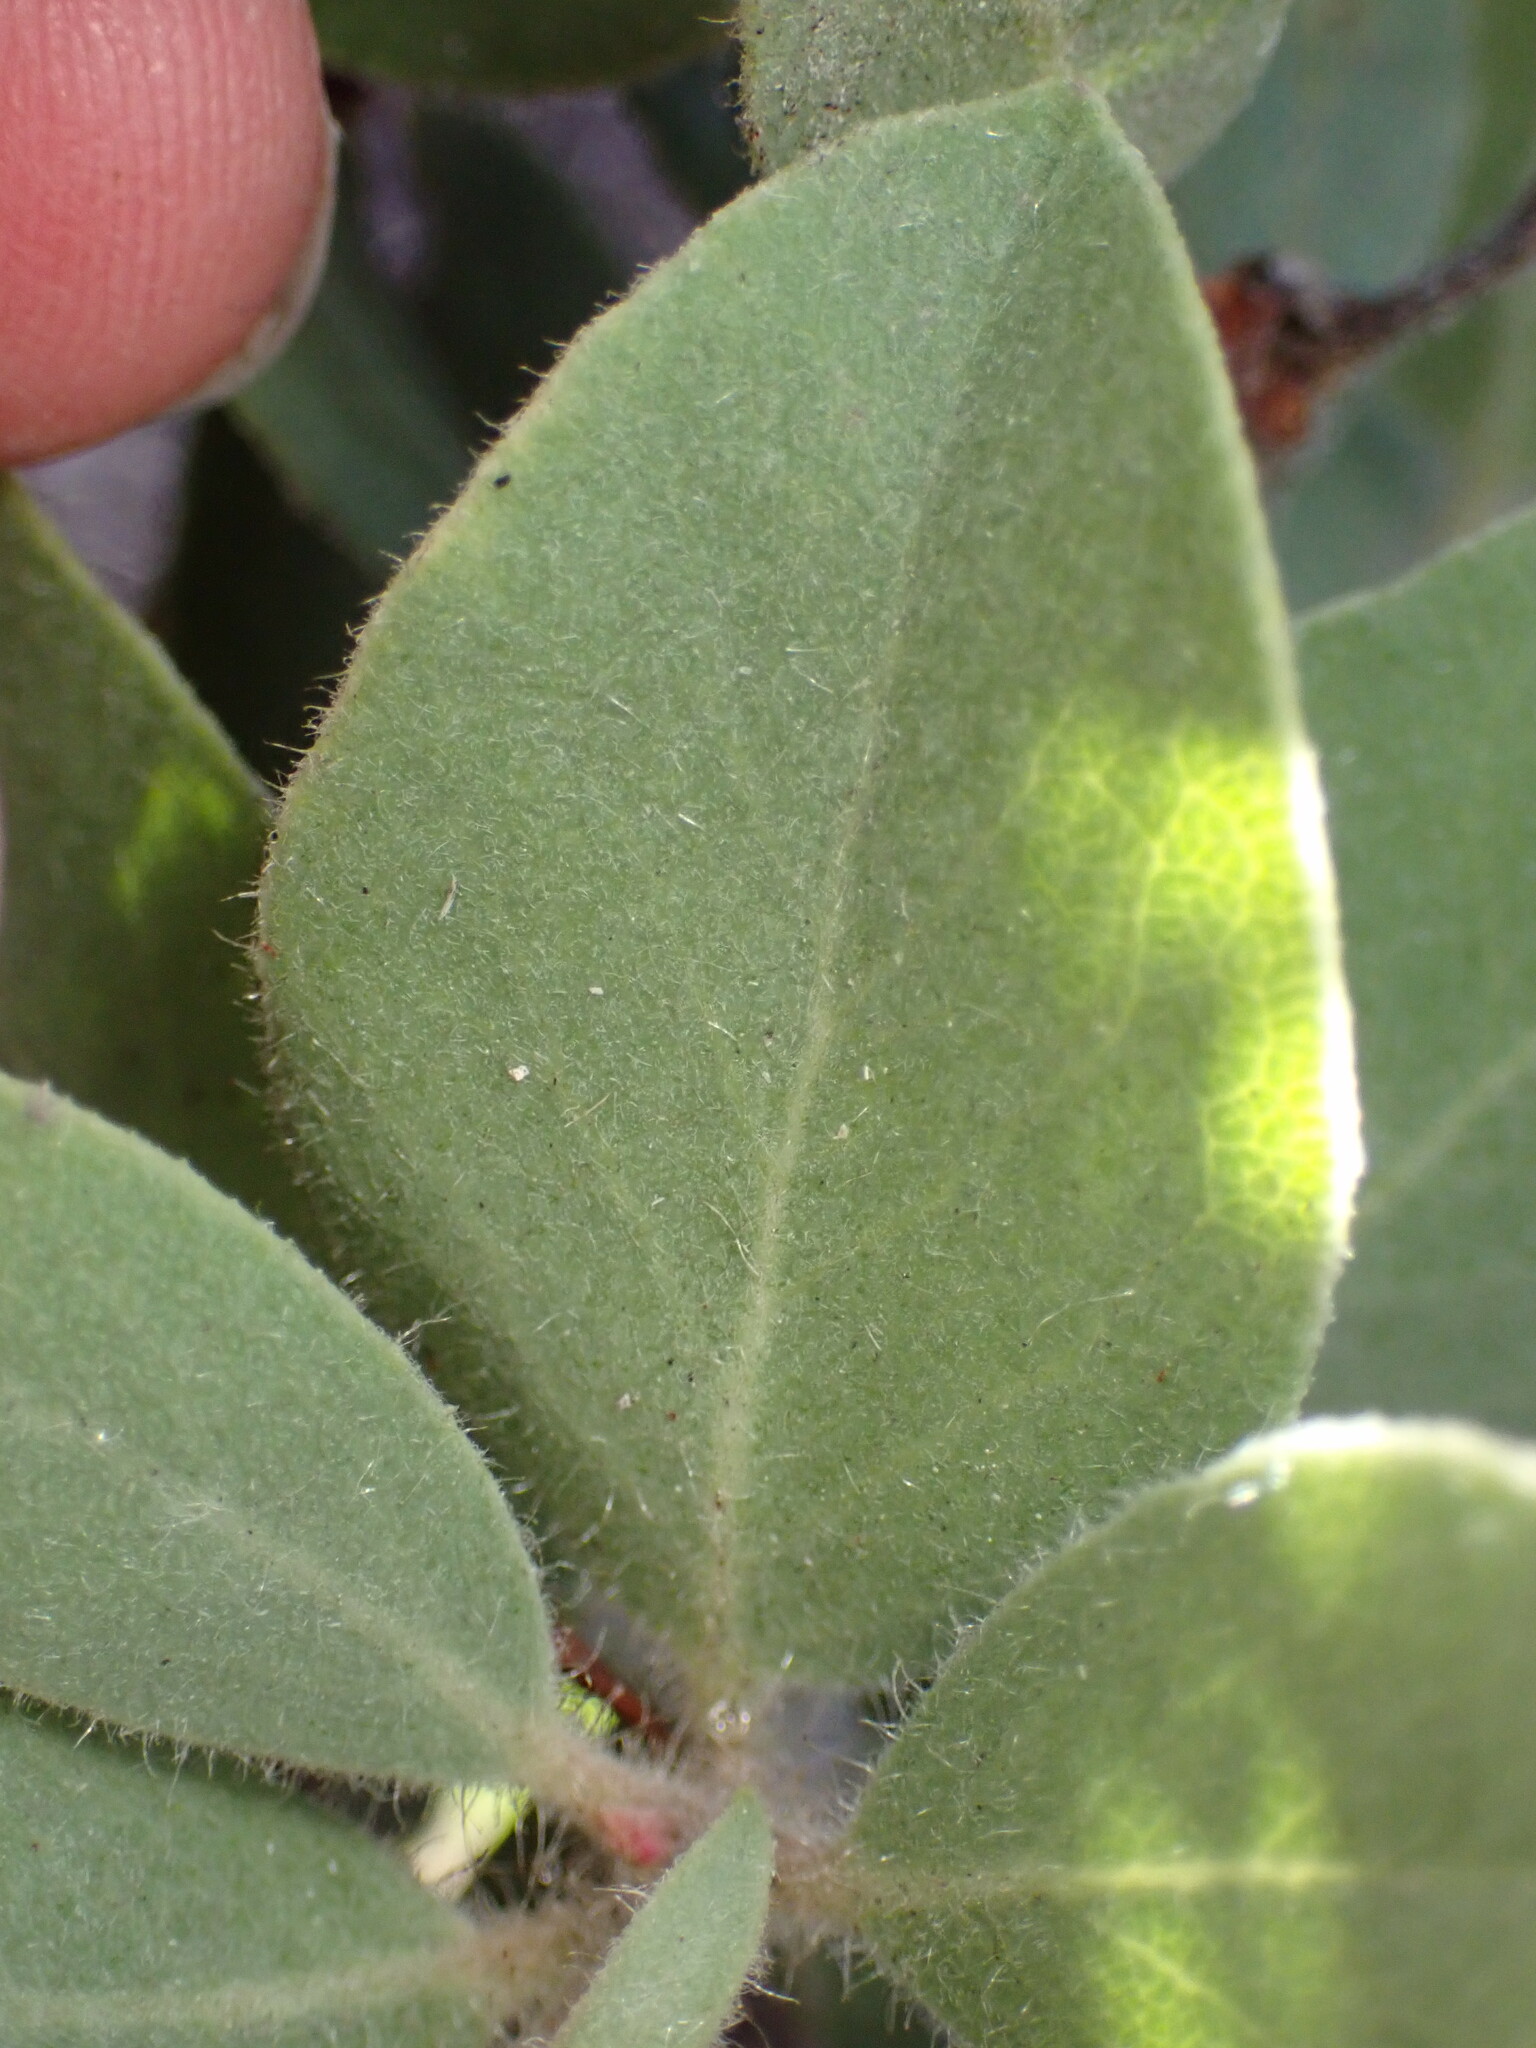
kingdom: Plantae
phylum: Tracheophyta
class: Magnoliopsida
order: Ericales
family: Ericaceae
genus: Arctostaphylos
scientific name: Arctostaphylos glandulosa
